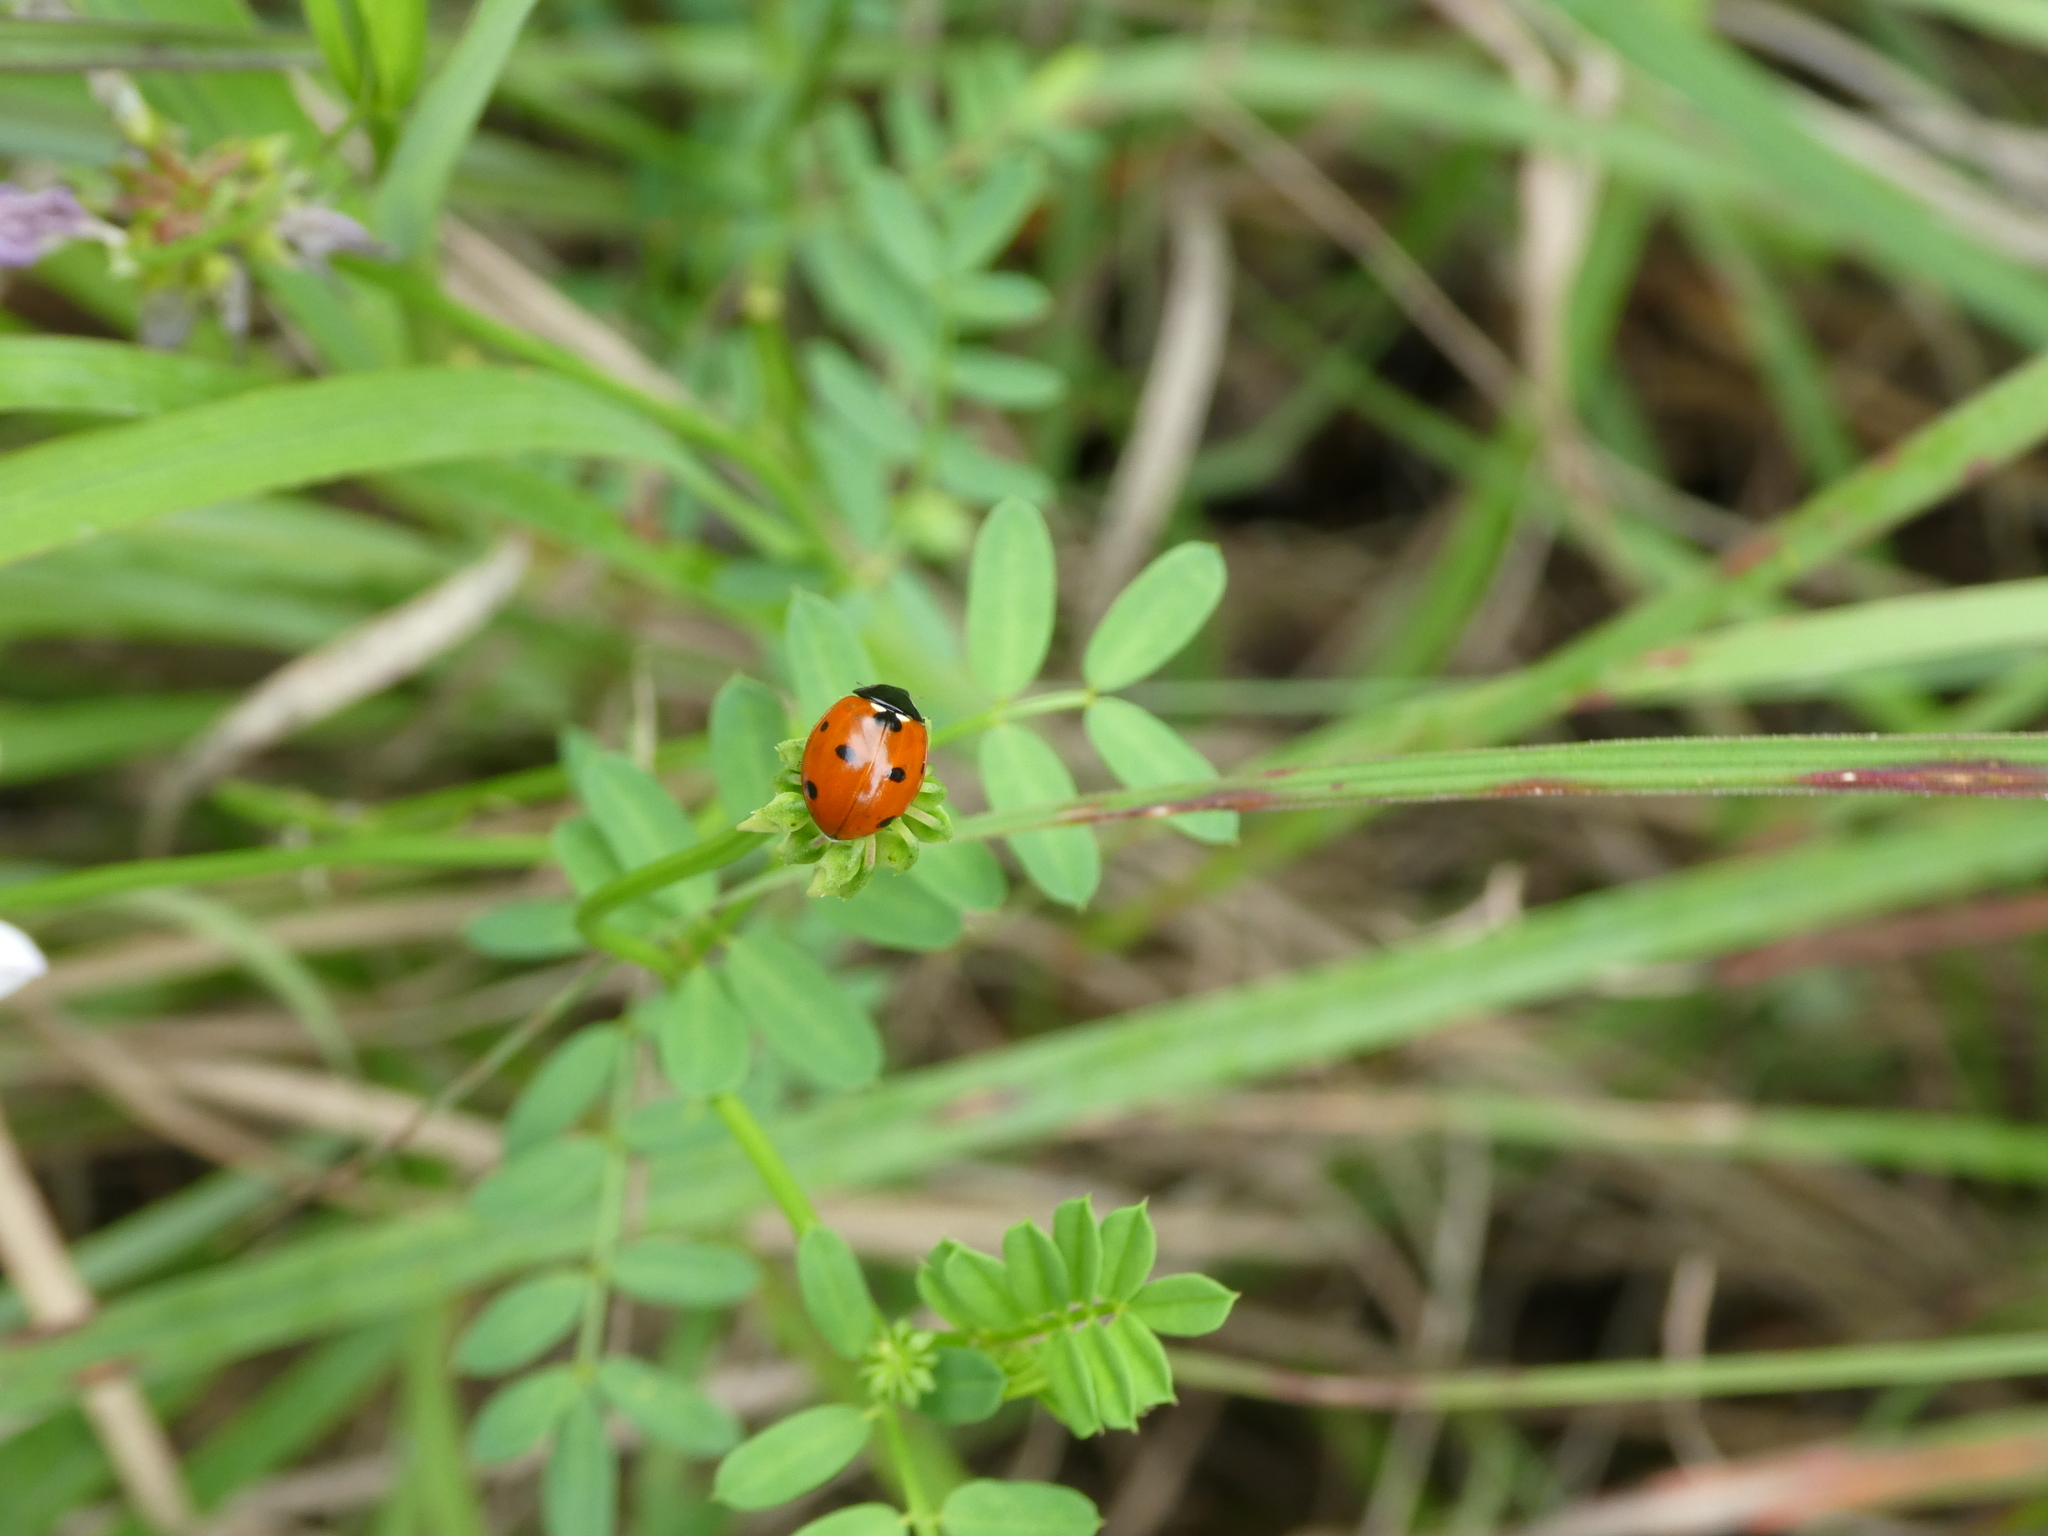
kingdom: Animalia
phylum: Arthropoda
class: Insecta
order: Coleoptera
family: Coccinellidae
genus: Coccinella
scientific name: Coccinella septempunctata
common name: Sevenspotted lady beetle
